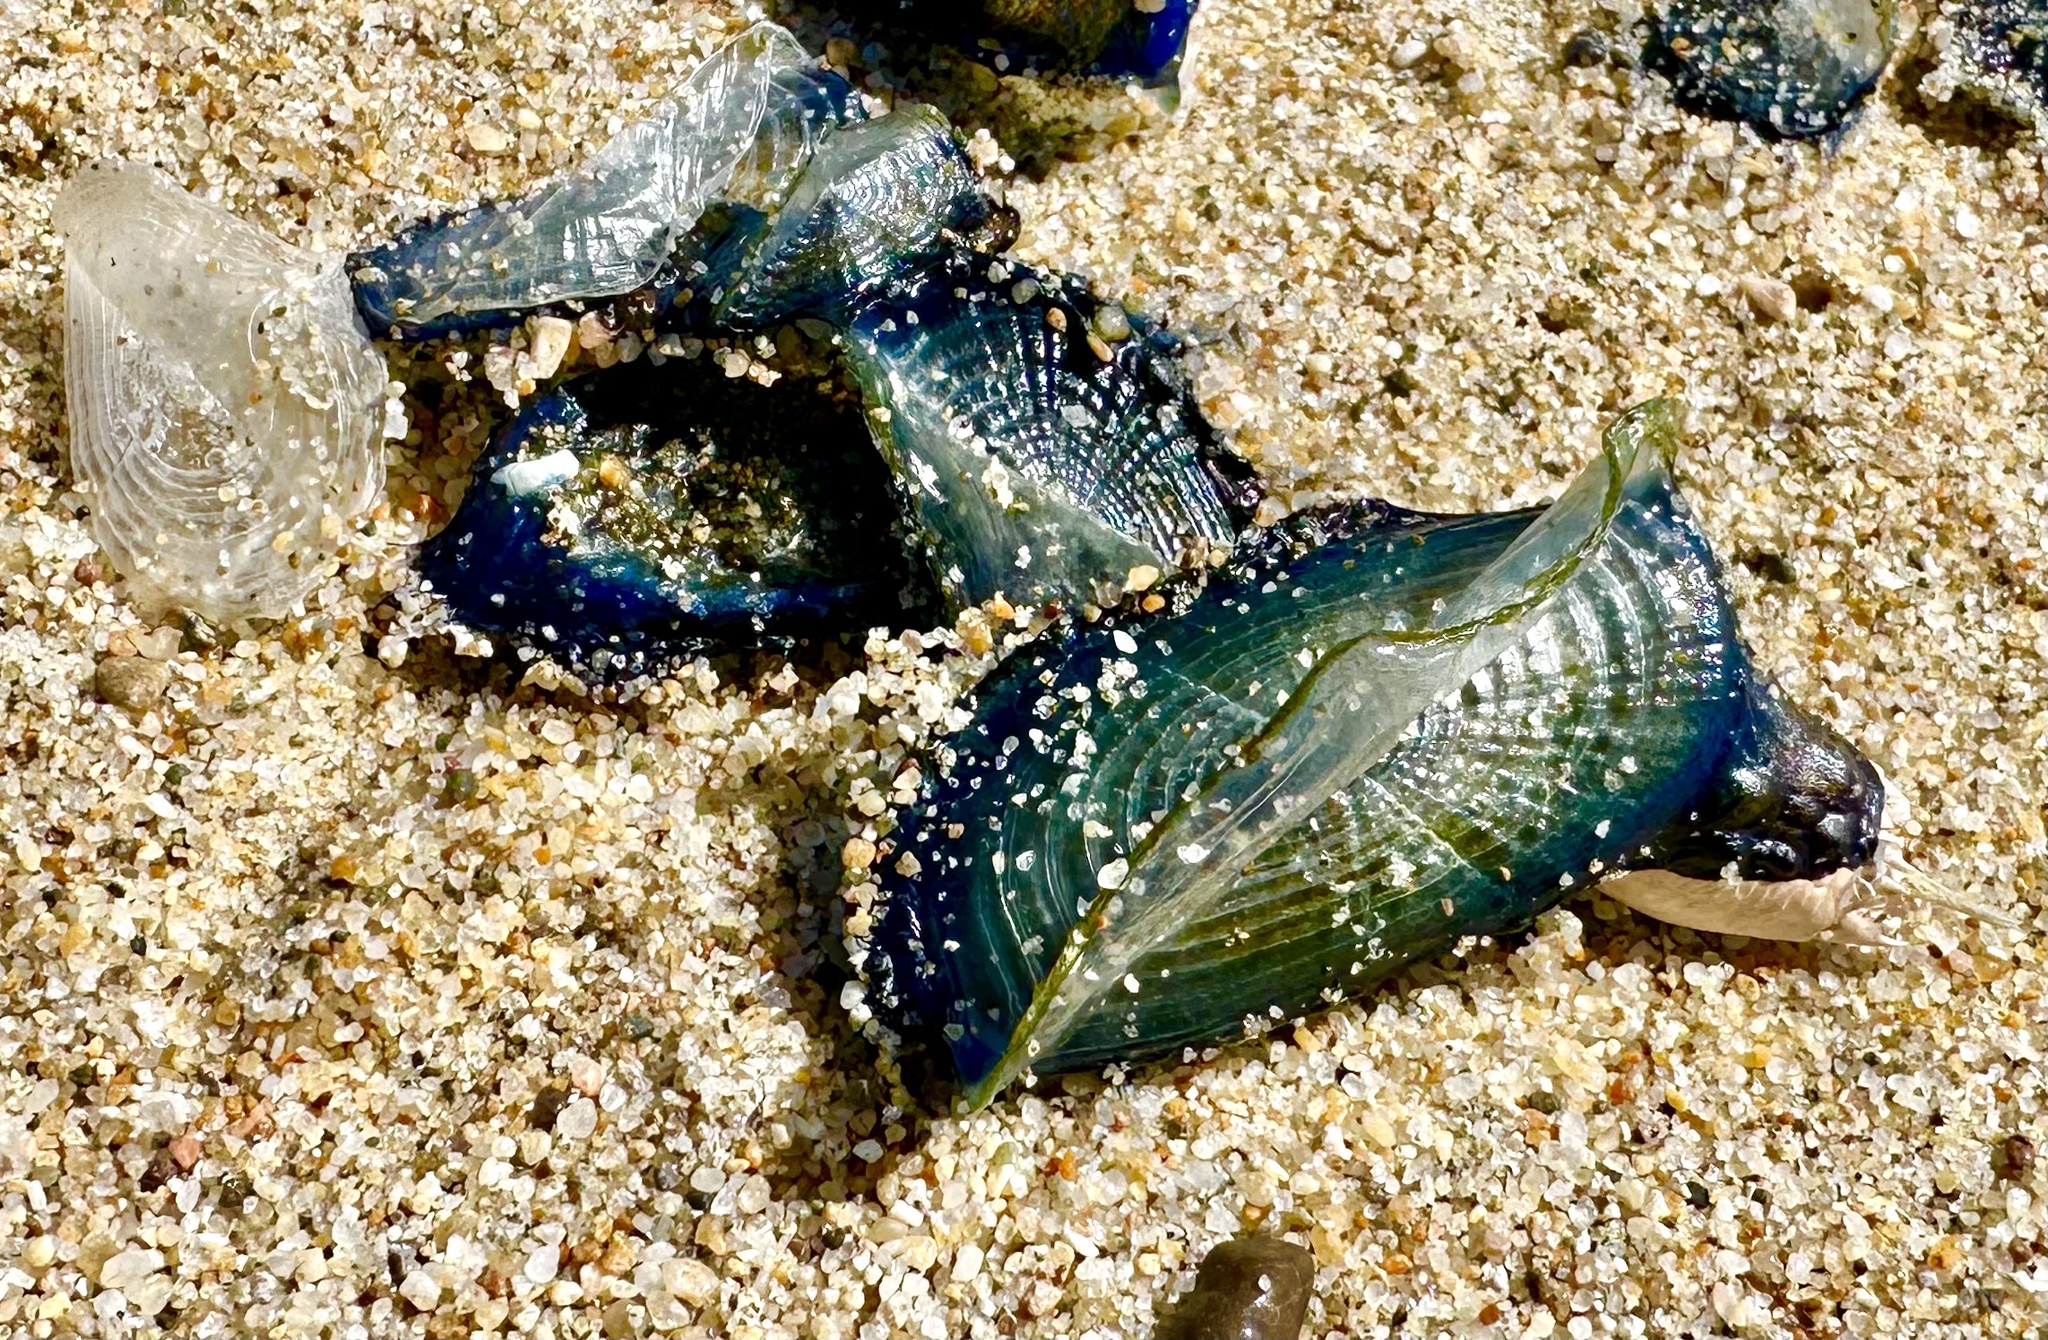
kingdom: Animalia
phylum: Cnidaria
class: Hydrozoa
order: Anthoathecata
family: Porpitidae
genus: Velella
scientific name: Velella velella
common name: By-the-wind-sailor
